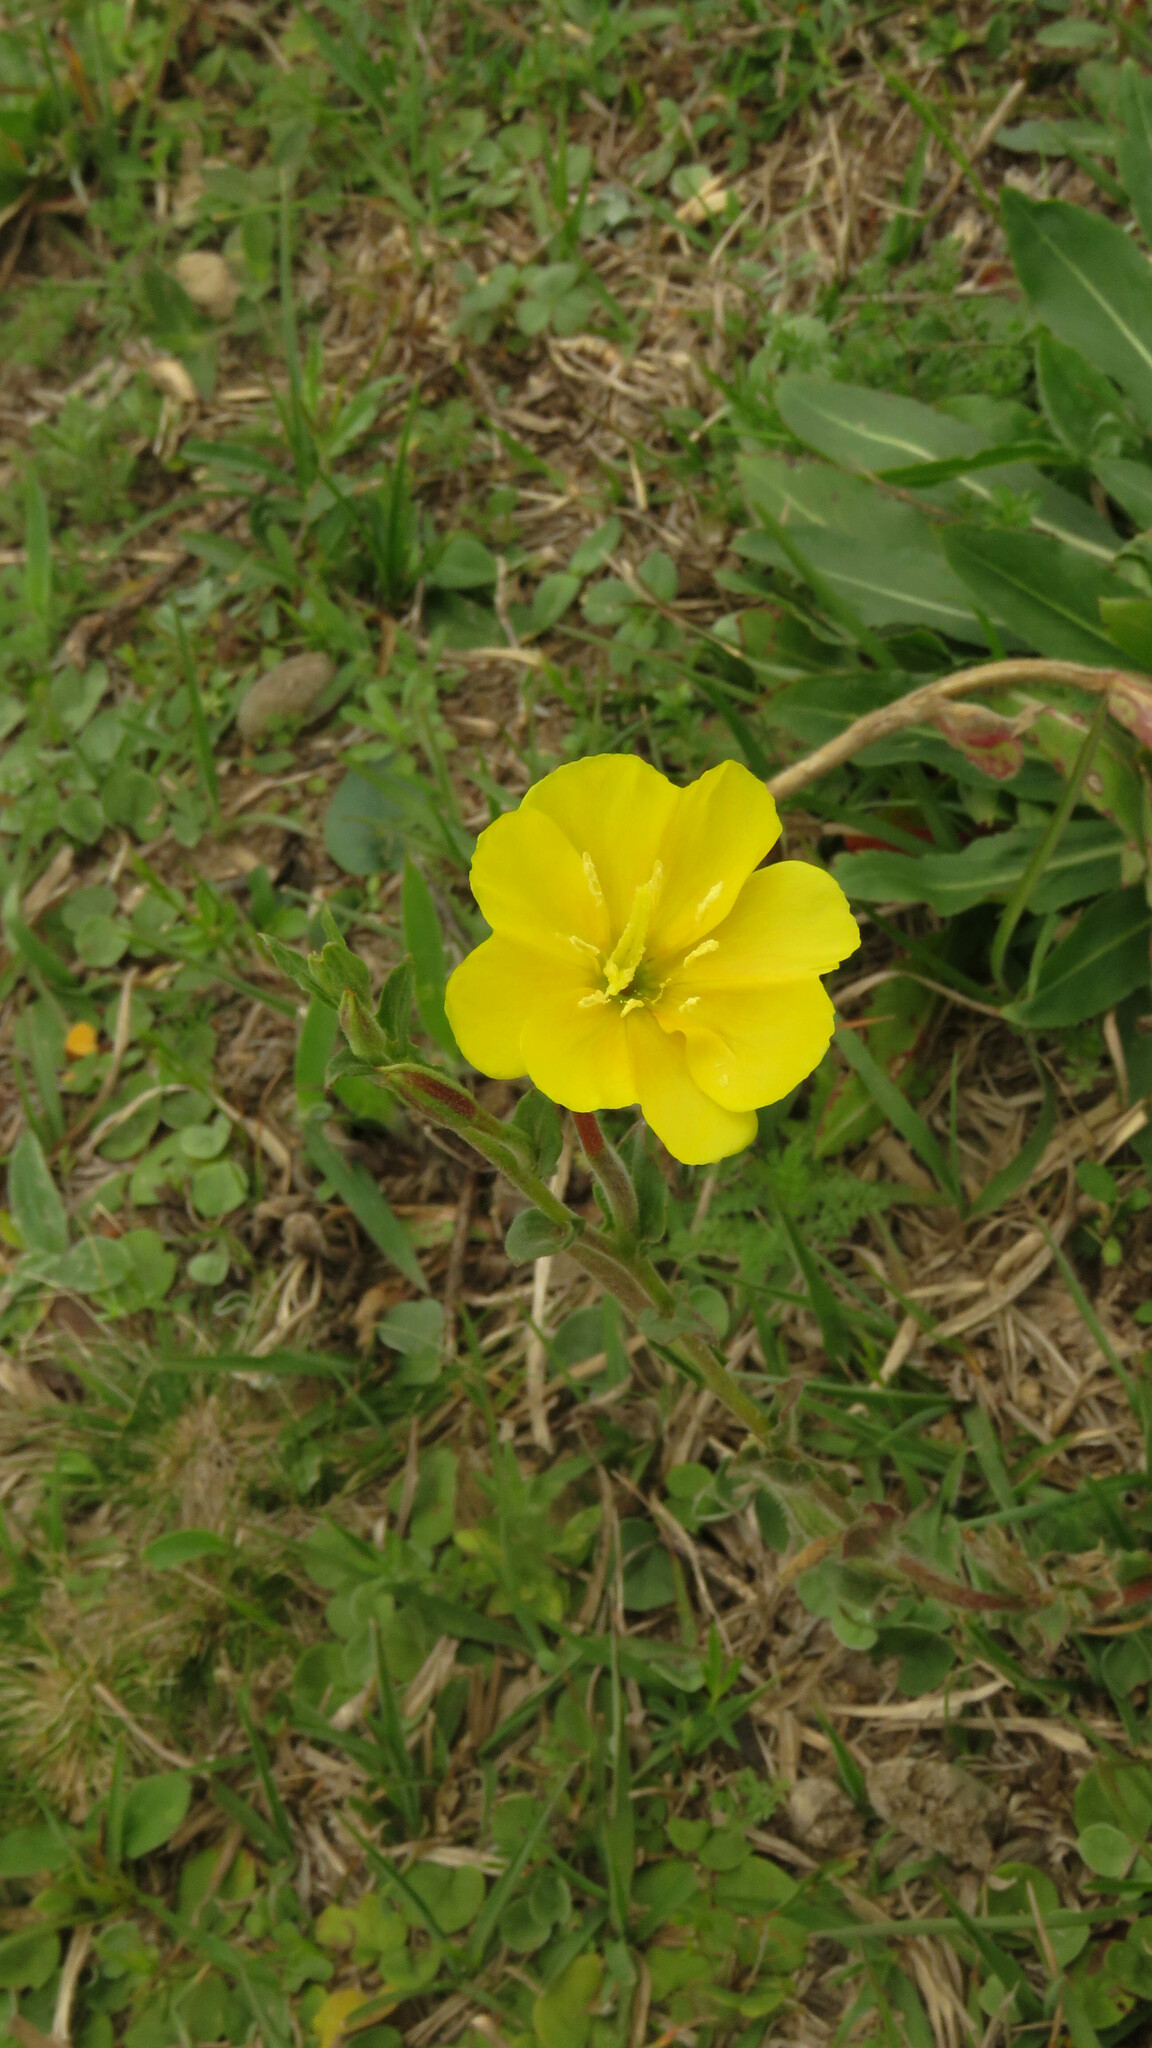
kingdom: Plantae
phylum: Tracheophyta
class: Magnoliopsida
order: Myrtales
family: Onagraceae
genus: Oenothera
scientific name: Oenothera affinis
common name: Longflower evening primrose
